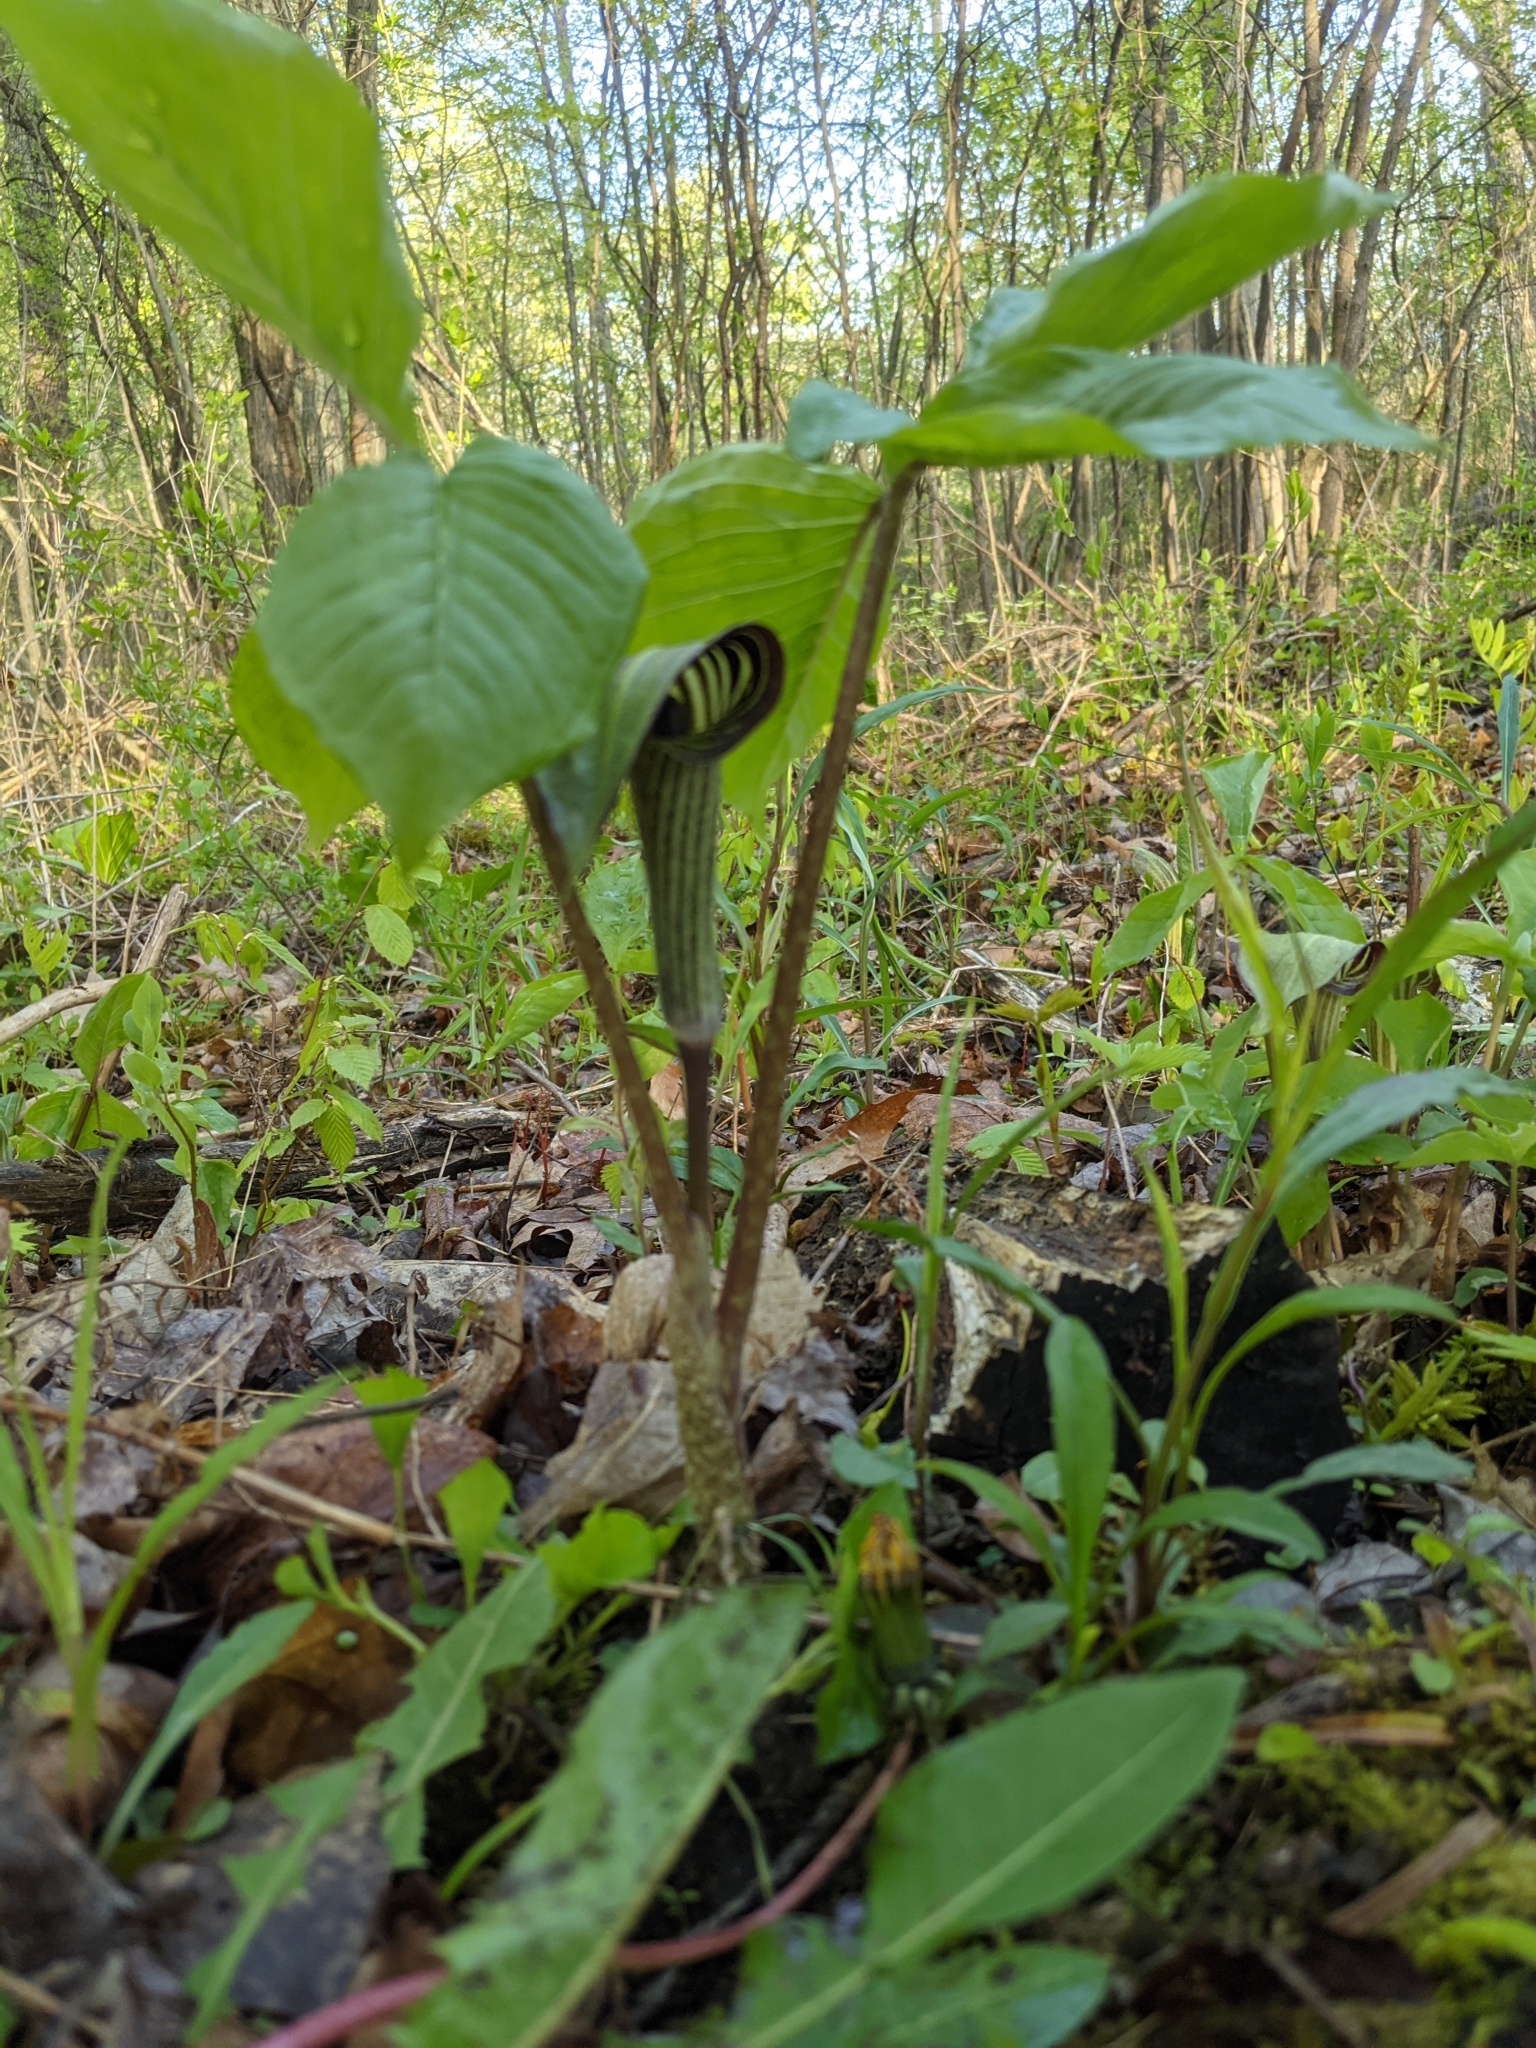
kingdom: Plantae
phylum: Tracheophyta
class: Liliopsida
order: Alismatales
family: Araceae
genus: Arisaema
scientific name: Arisaema triphyllum
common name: Jack-in-the-pulpit
